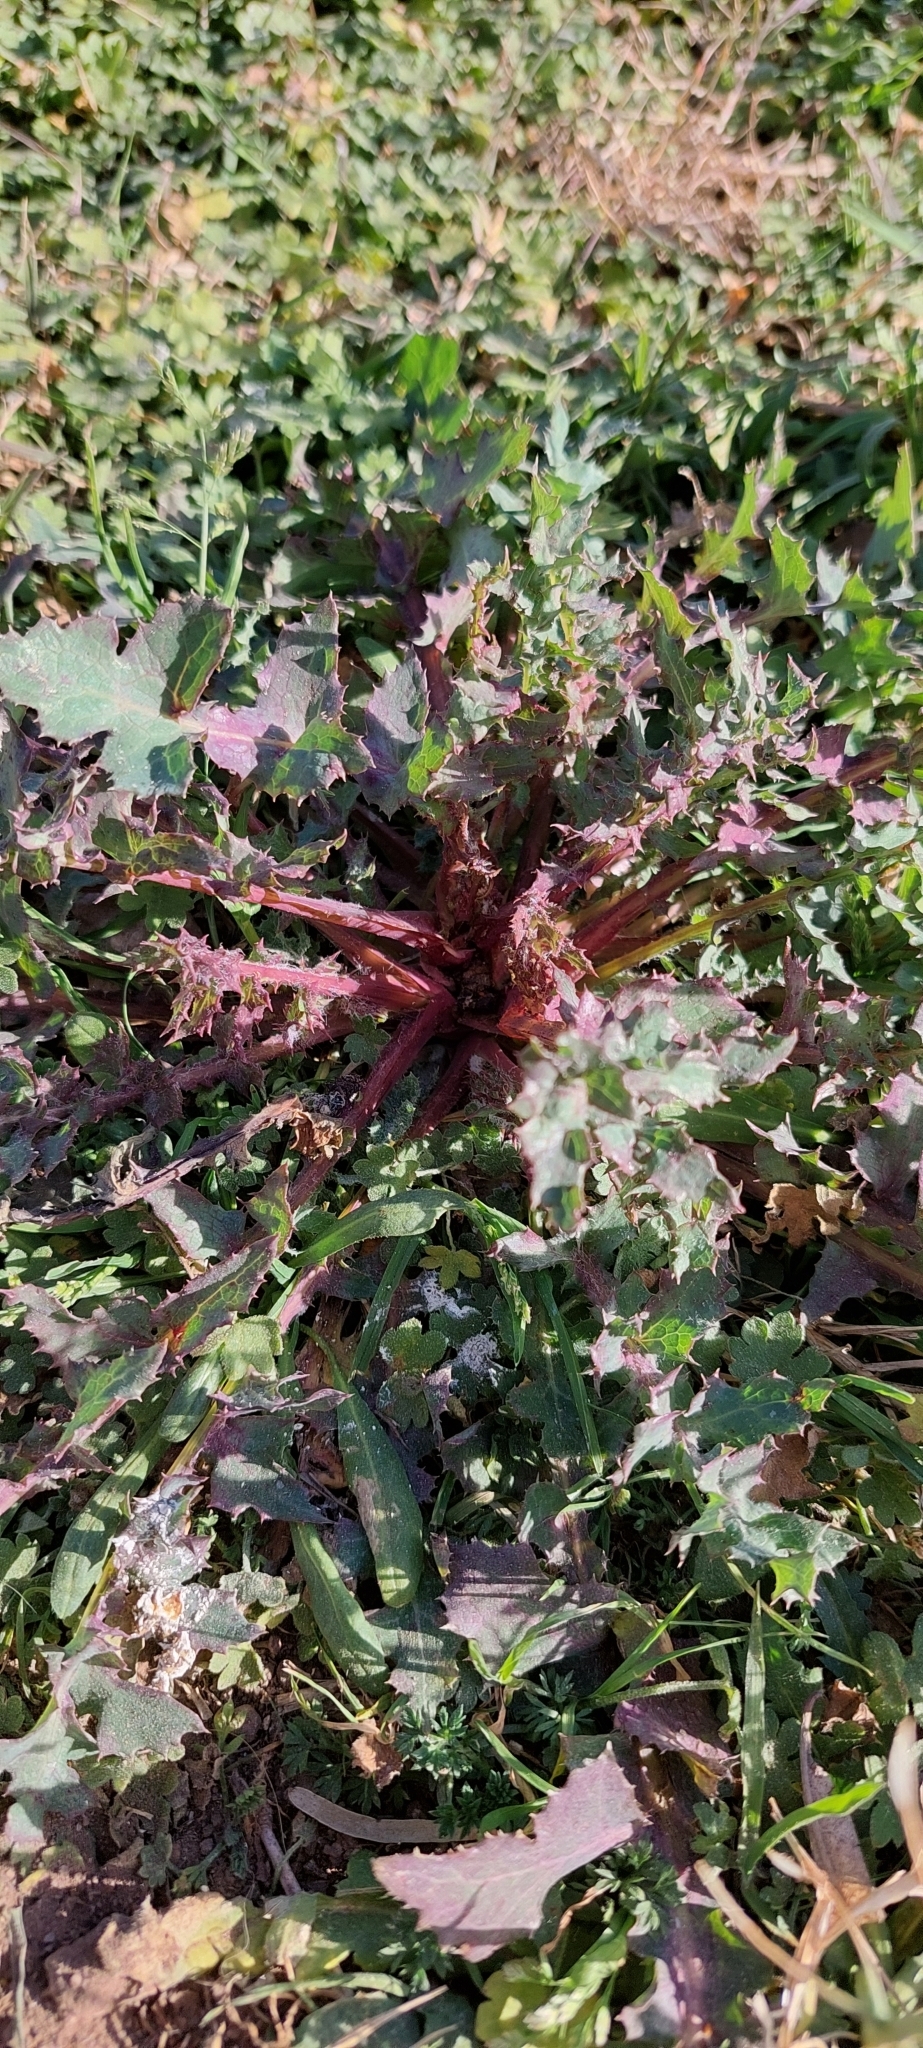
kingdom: Plantae
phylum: Tracheophyta
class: Magnoliopsida
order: Asterales
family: Asteraceae
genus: Sonchus
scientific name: Sonchus oleraceus
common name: Common sowthistle
